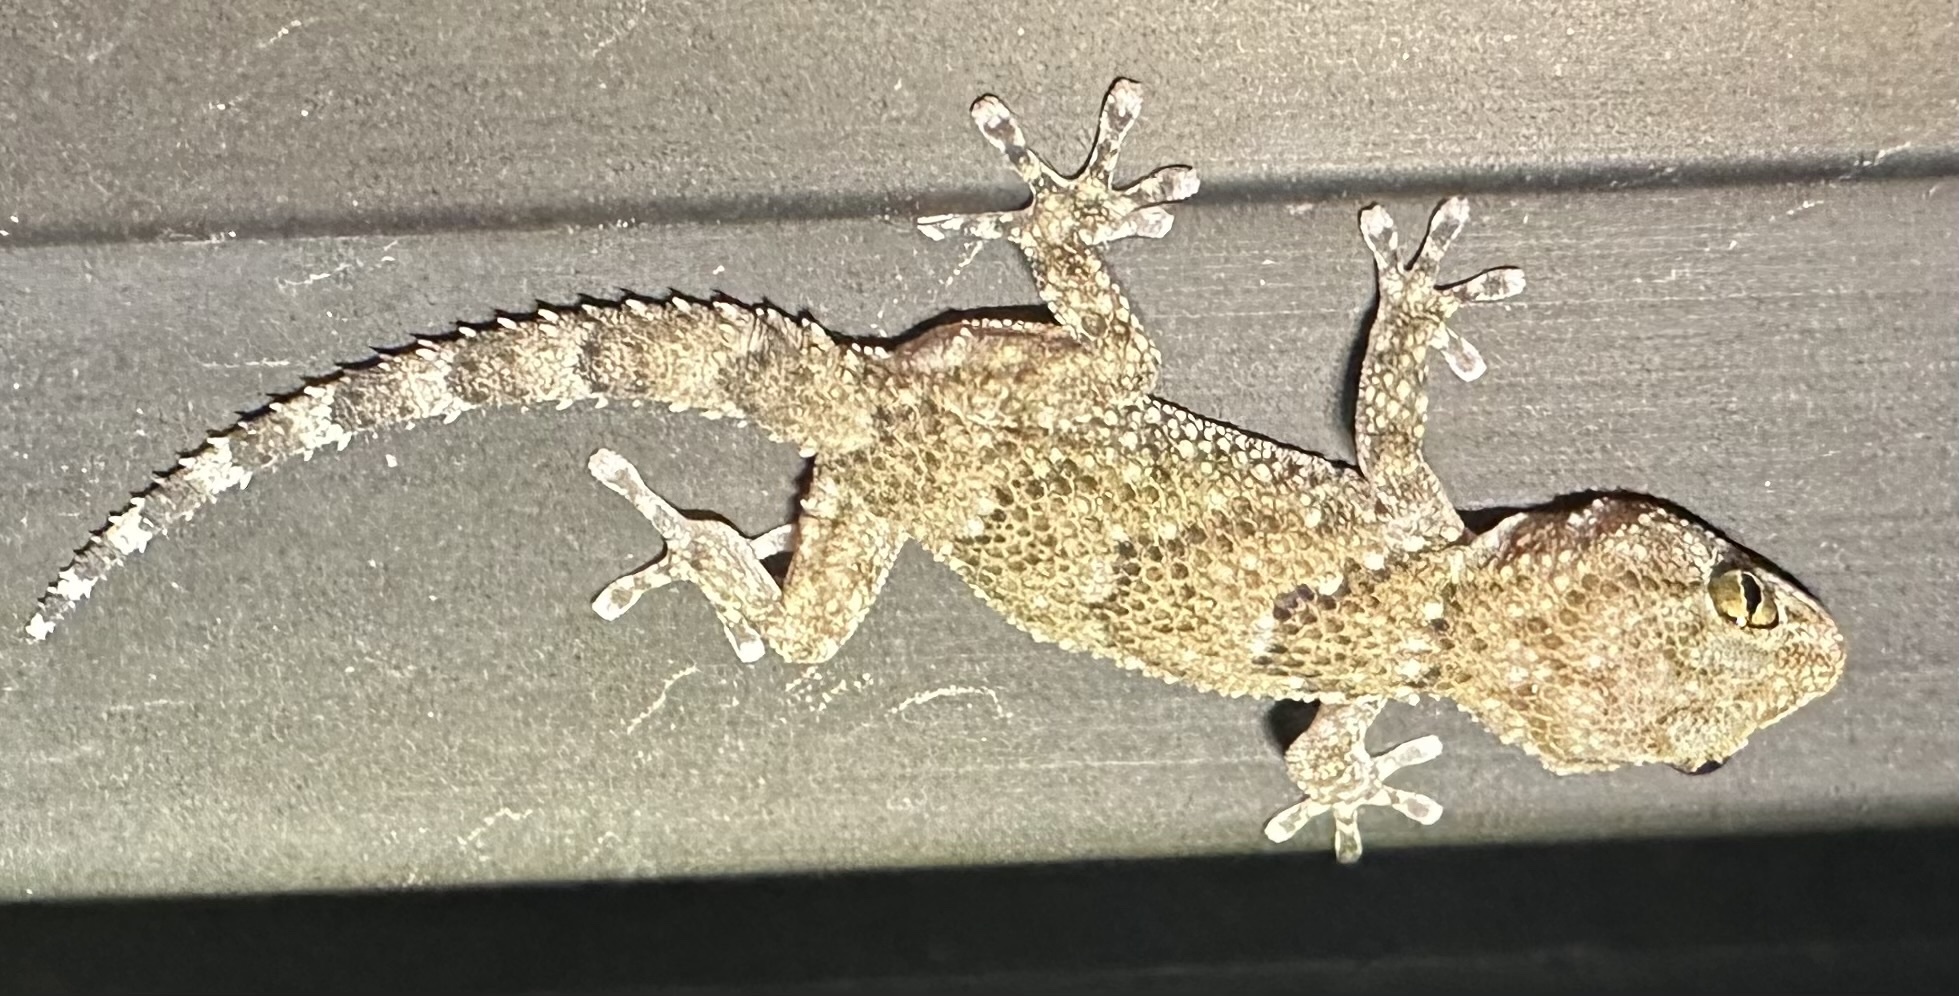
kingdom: Animalia
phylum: Chordata
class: Squamata
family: Gekkonidae
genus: Chondrodactylus
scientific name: Chondrodactylus laevigatus
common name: Fischer's thick-toed gecko
